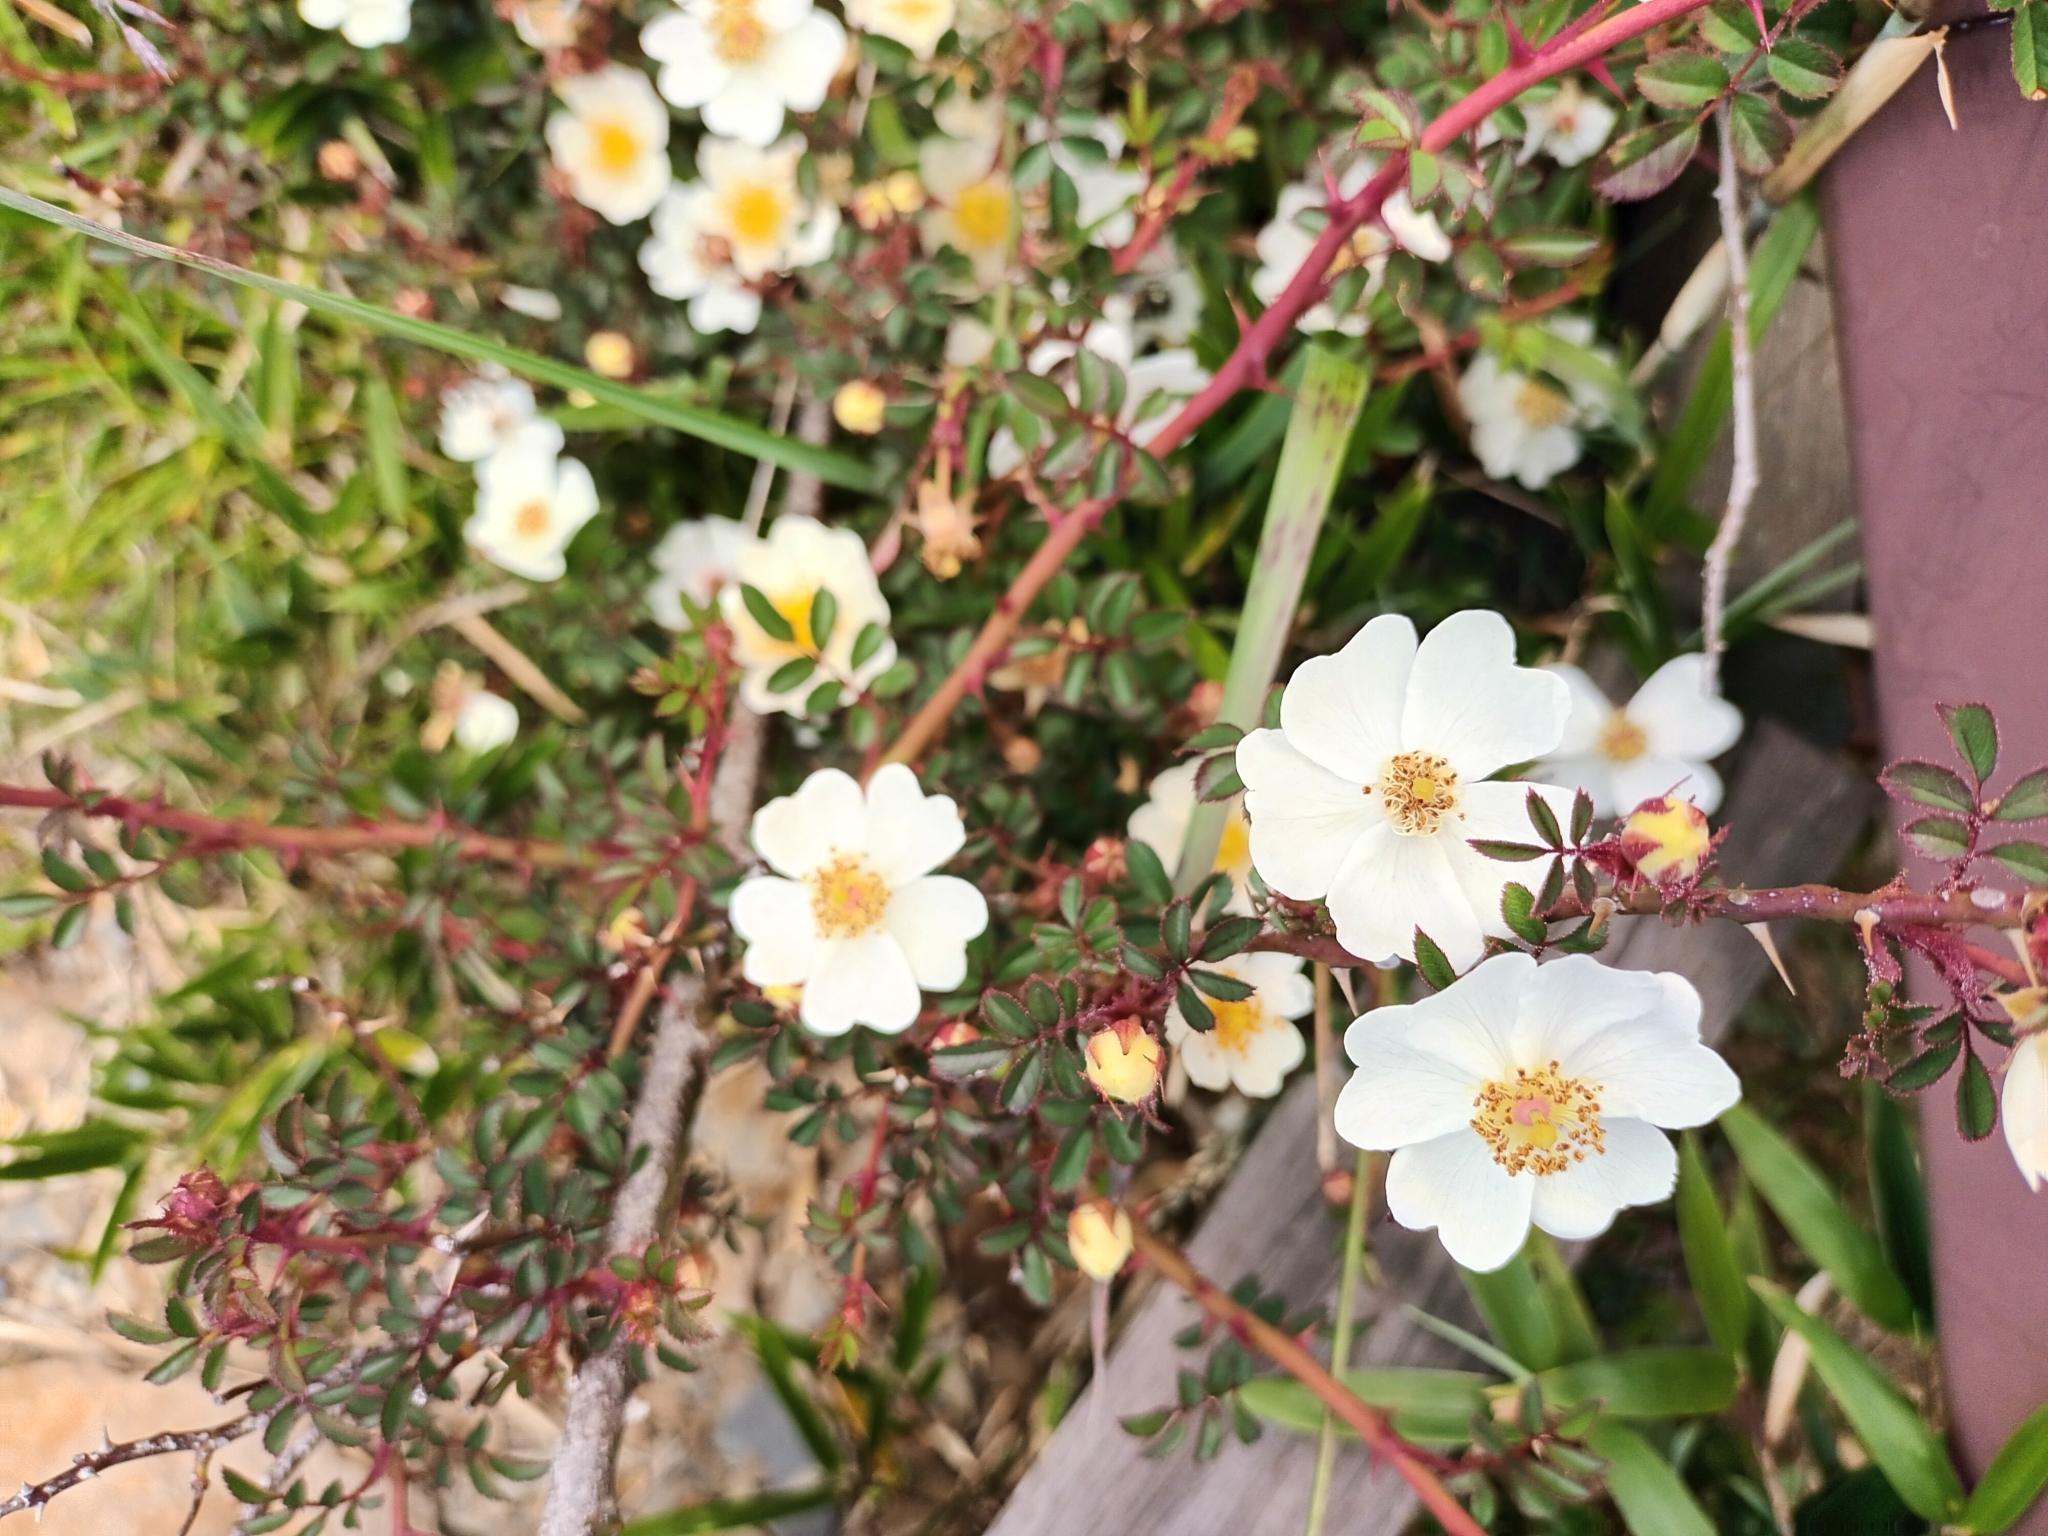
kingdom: Plantae
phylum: Tracheophyta
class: Magnoliopsida
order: Rosales
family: Rosaceae
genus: Rosa
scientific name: Rosa transmorrisonensis
